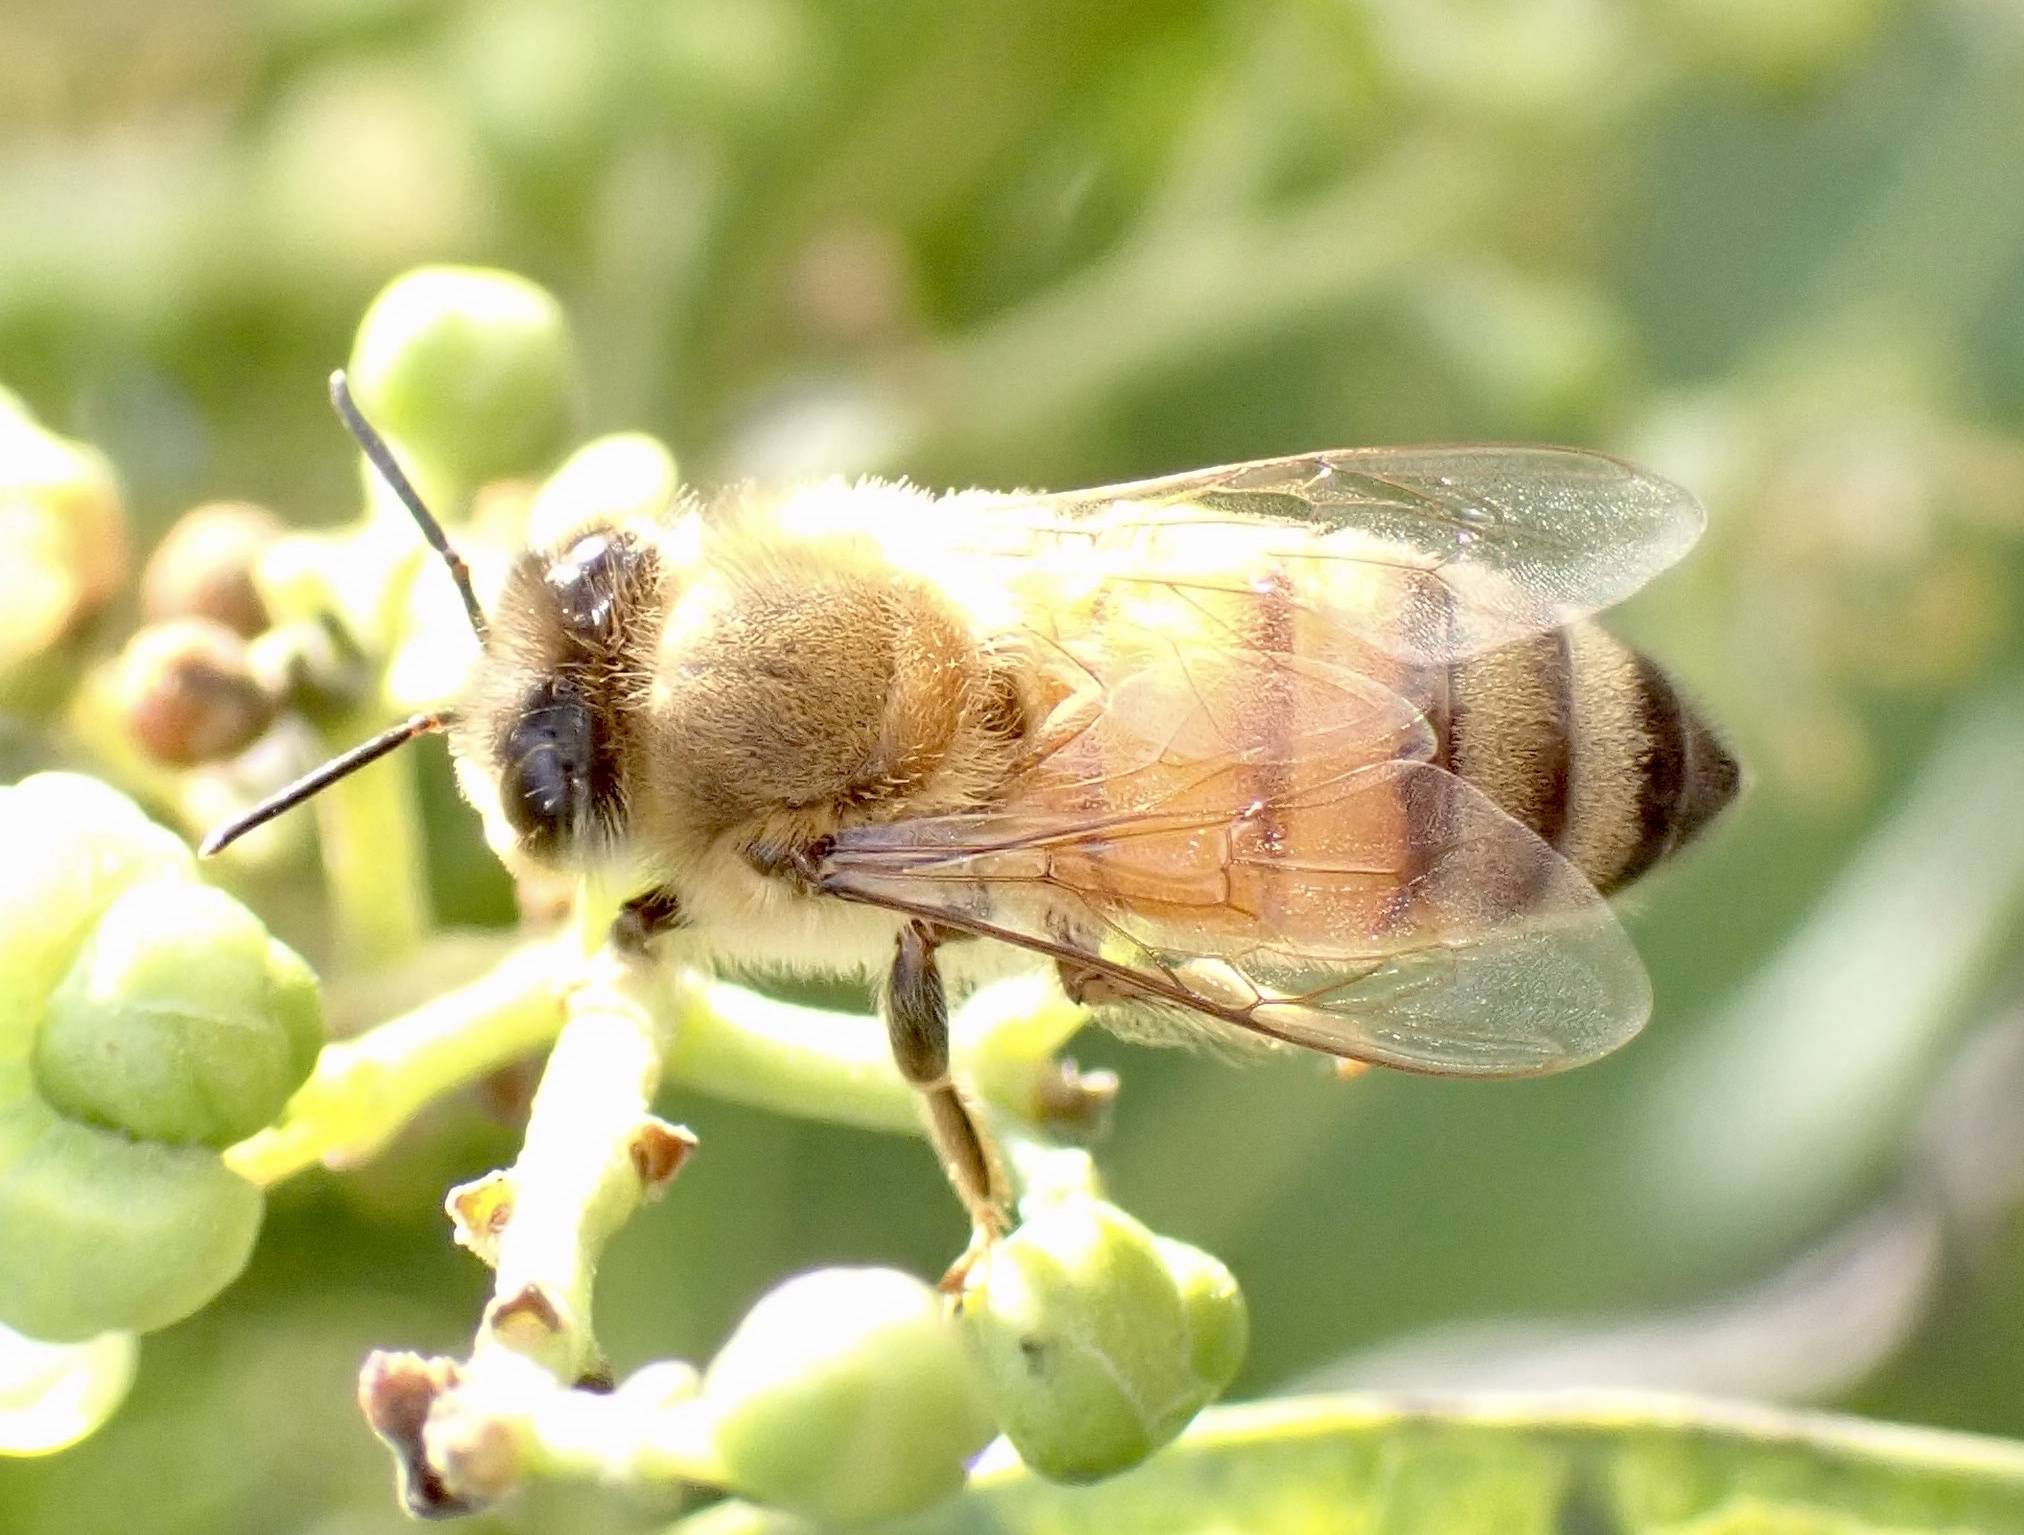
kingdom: Animalia
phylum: Arthropoda
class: Insecta
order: Hymenoptera
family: Apidae
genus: Apis
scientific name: Apis mellifera
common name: Honey bee
